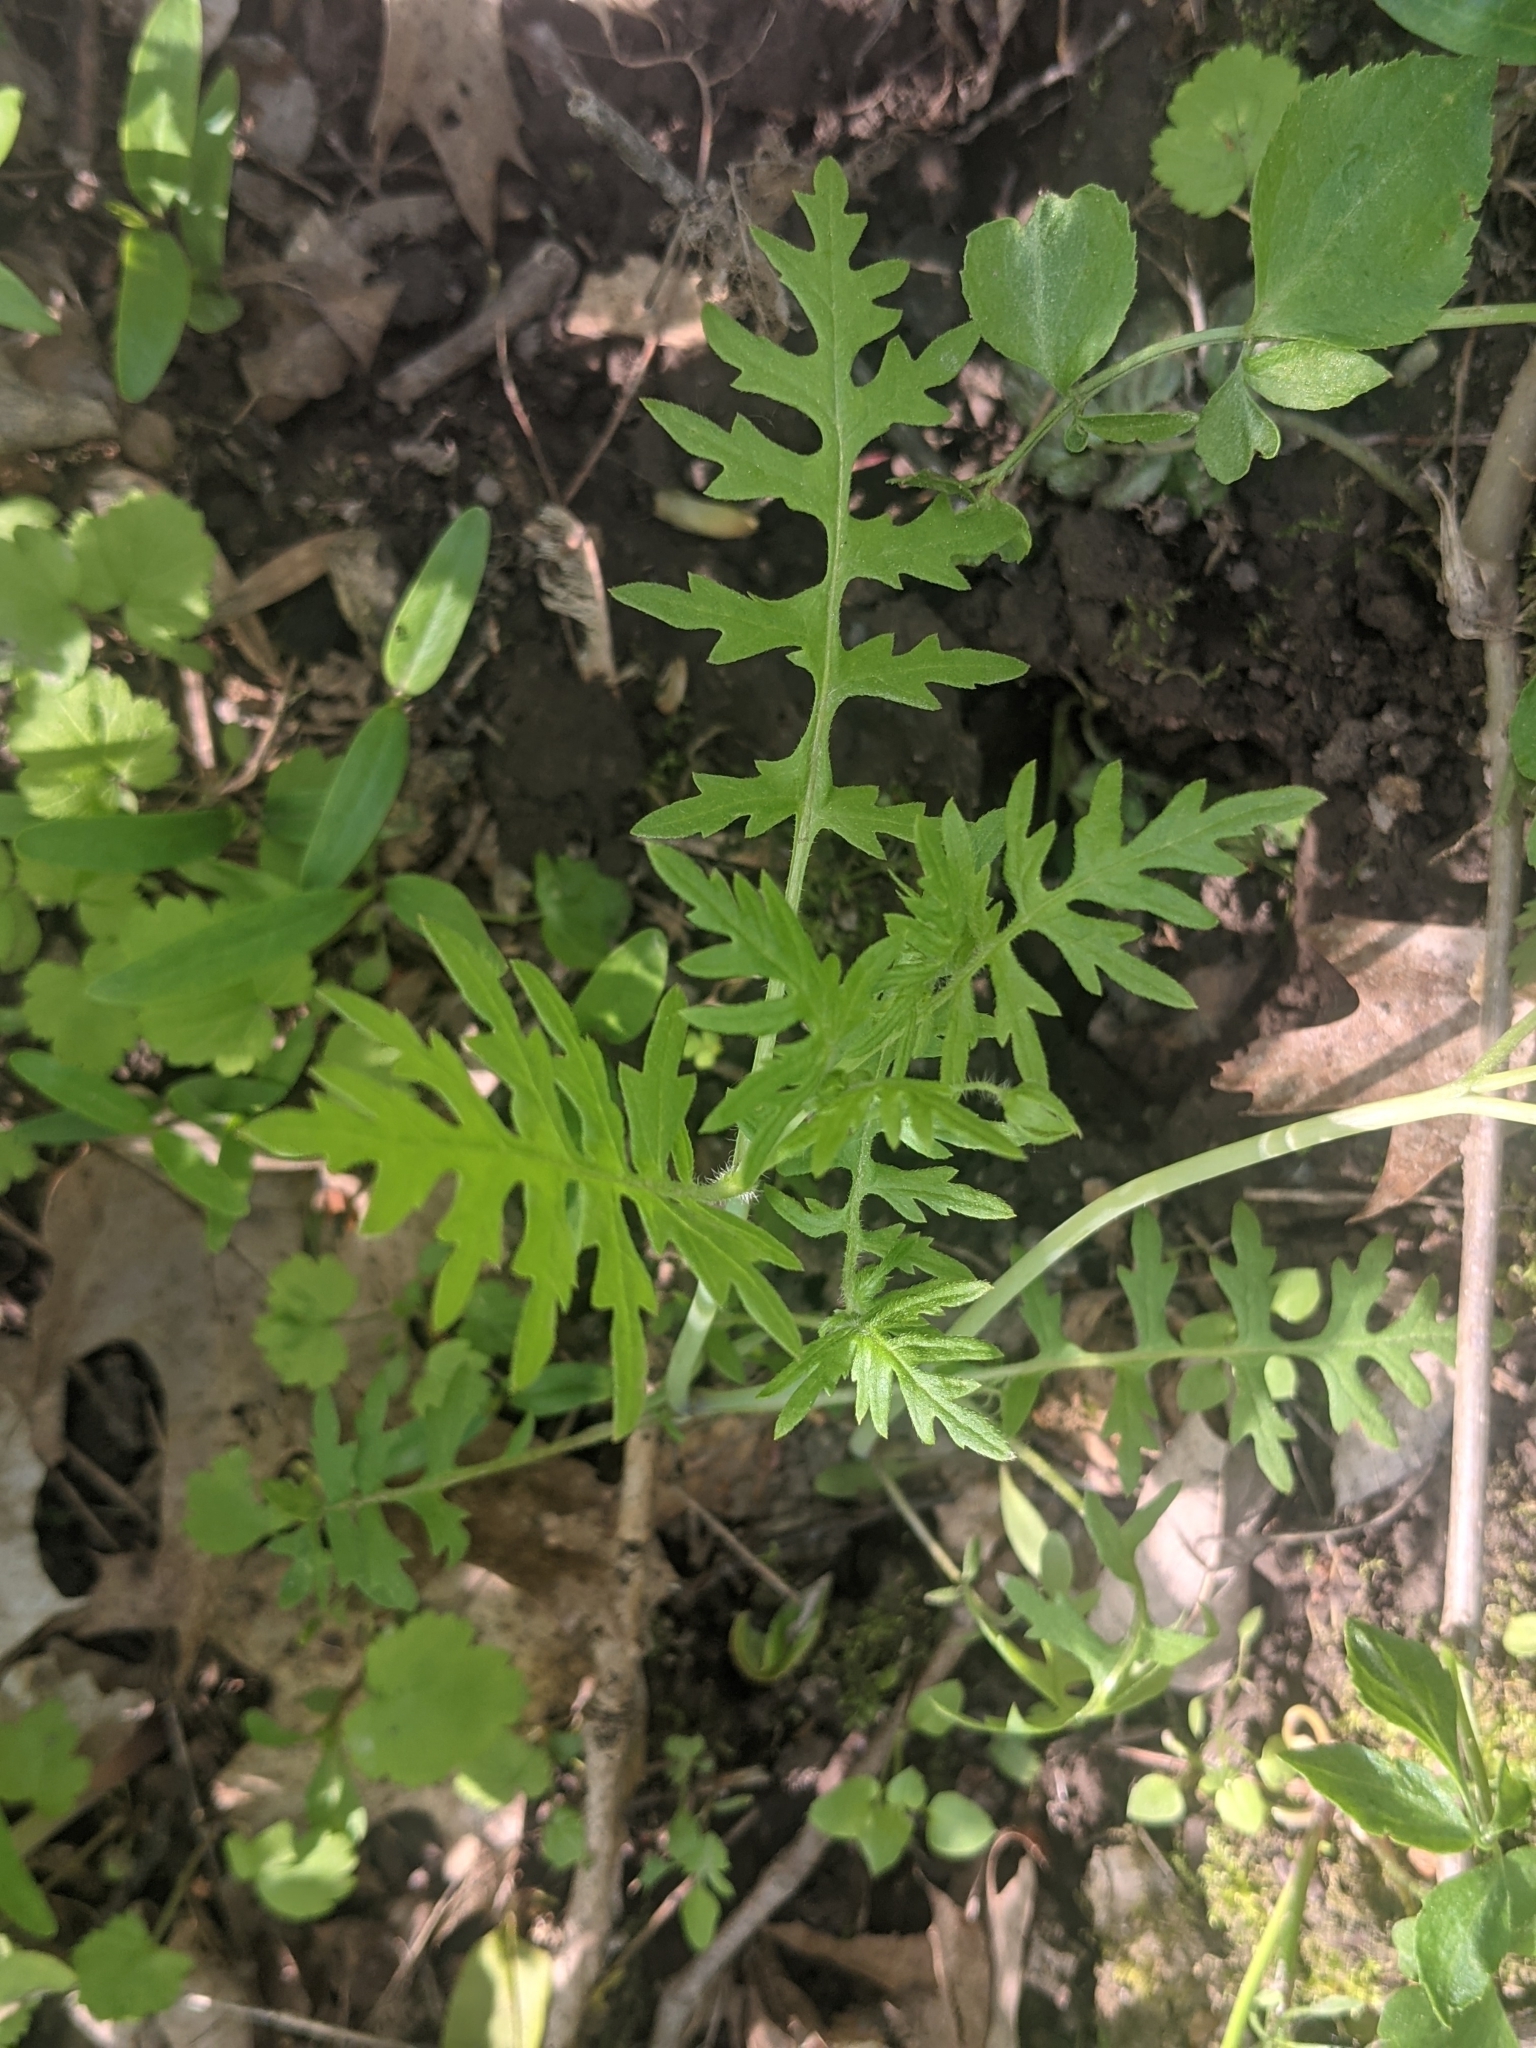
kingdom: Plantae
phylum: Tracheophyta
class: Magnoliopsida
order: Boraginales
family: Hydrophyllaceae
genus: Ellisia
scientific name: Ellisia nyctelea
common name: Aunt lucy
